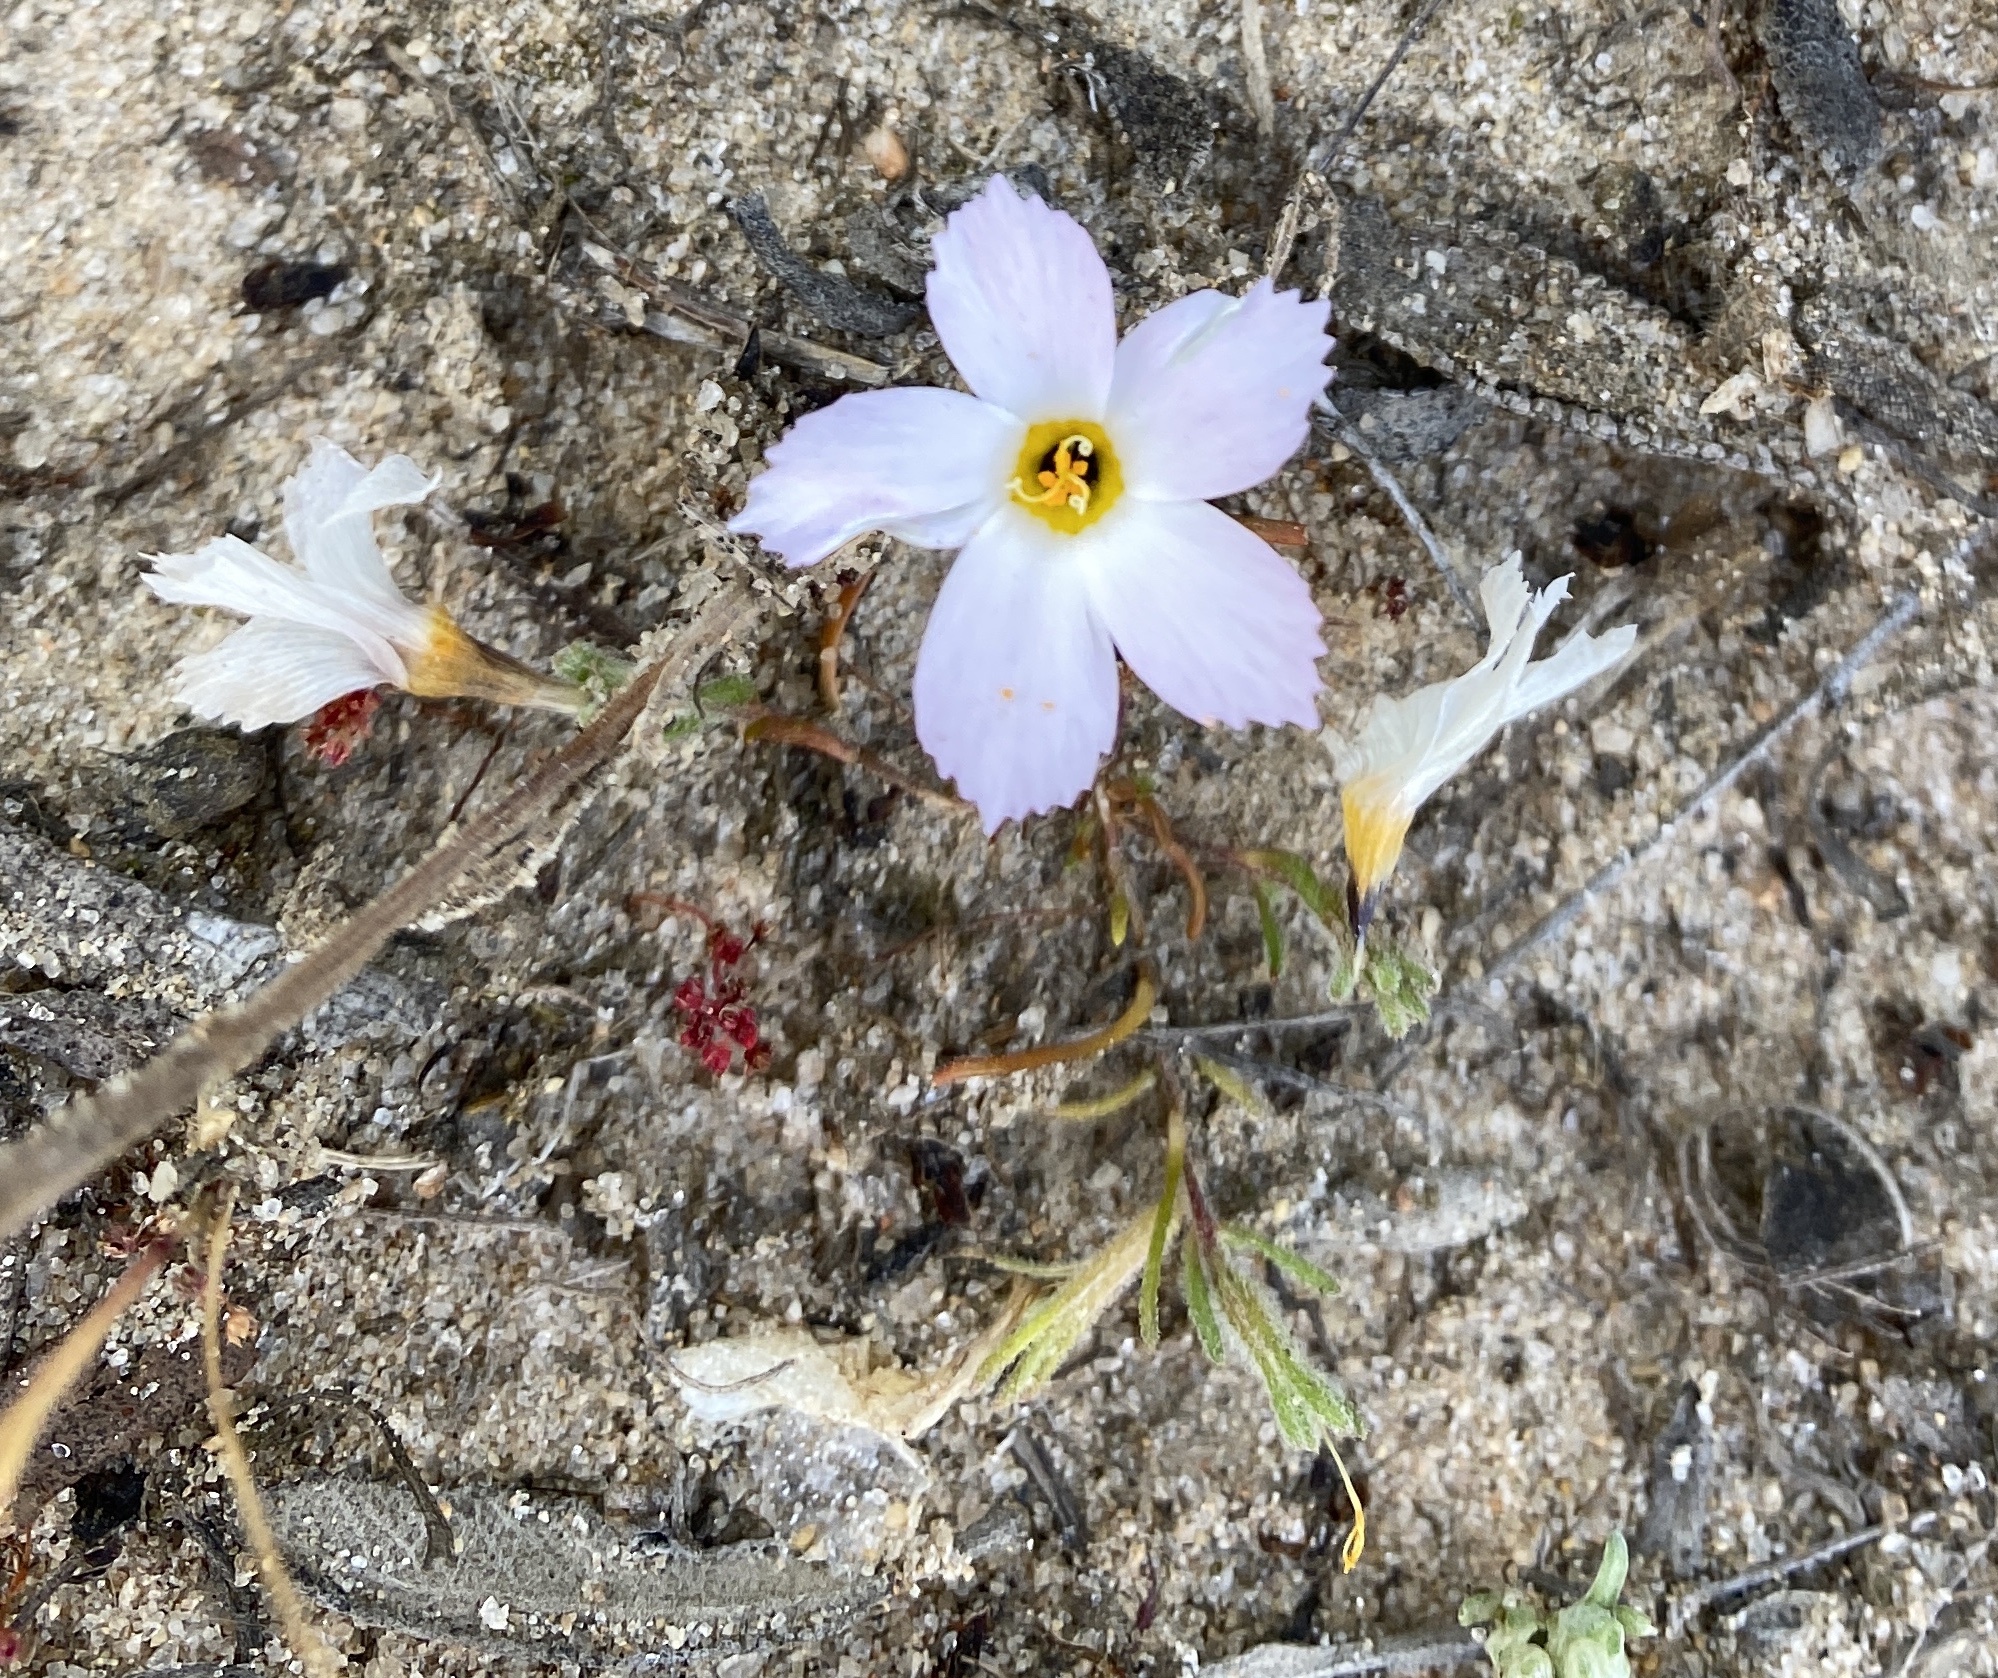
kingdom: Plantae
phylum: Tracheophyta
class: Magnoliopsida
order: Ericales
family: Polemoniaceae
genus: Linanthus
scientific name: Linanthus dianthiflorus
